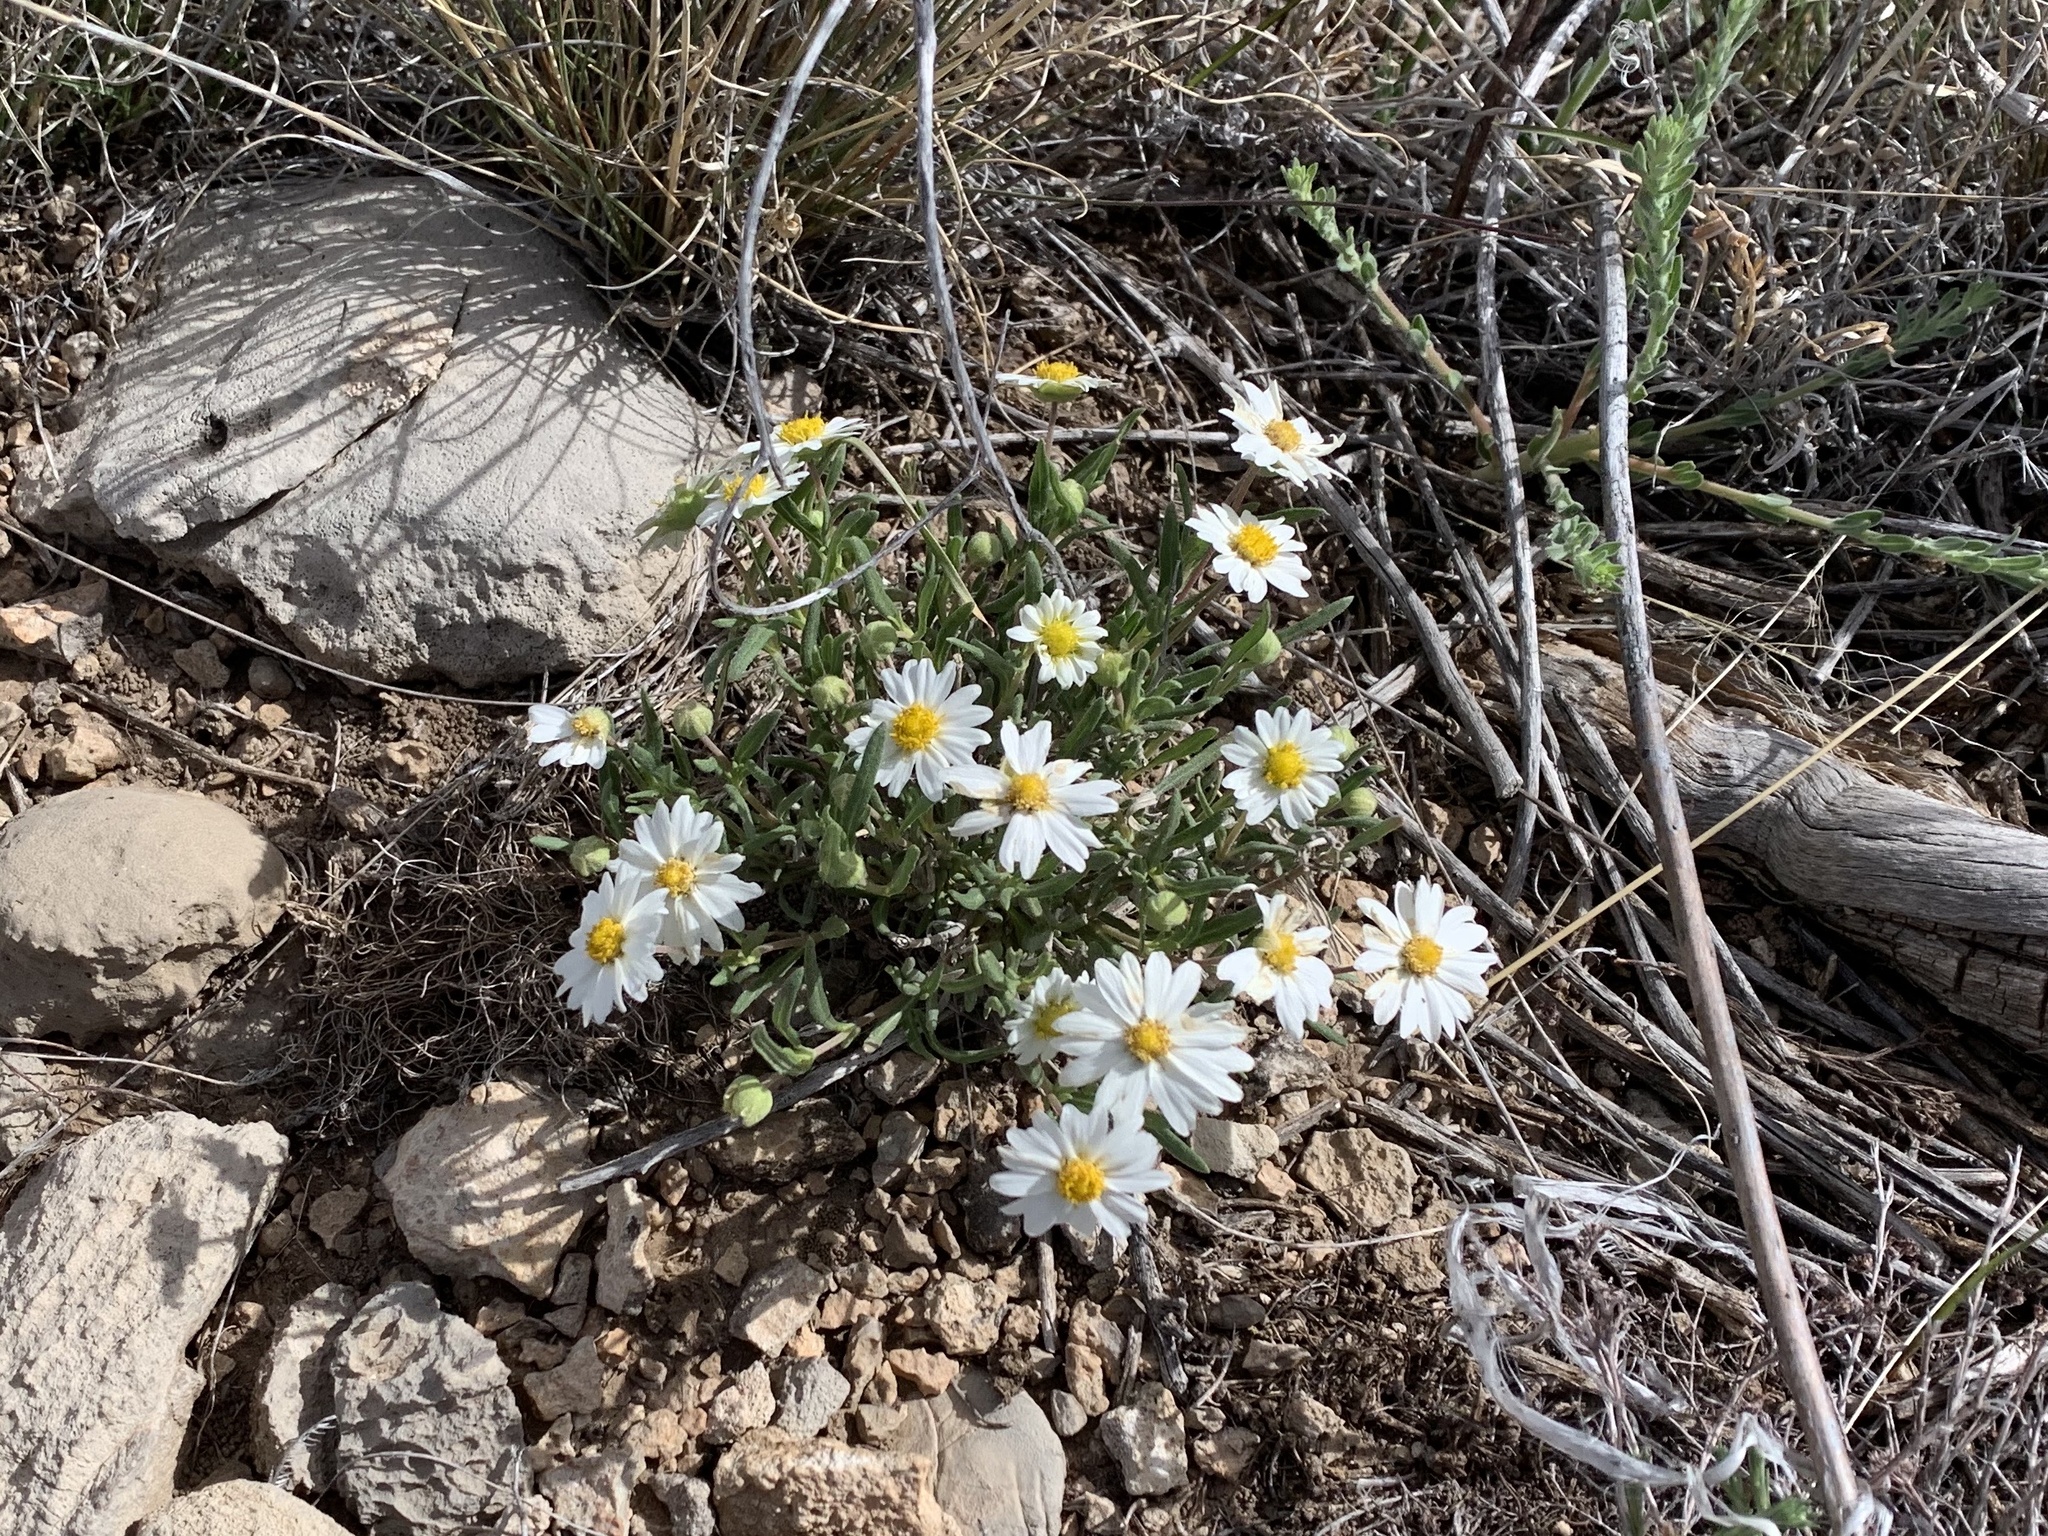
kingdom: Plantae
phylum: Tracheophyta
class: Magnoliopsida
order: Asterales
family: Asteraceae
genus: Melampodium
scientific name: Melampodium leucanthum
